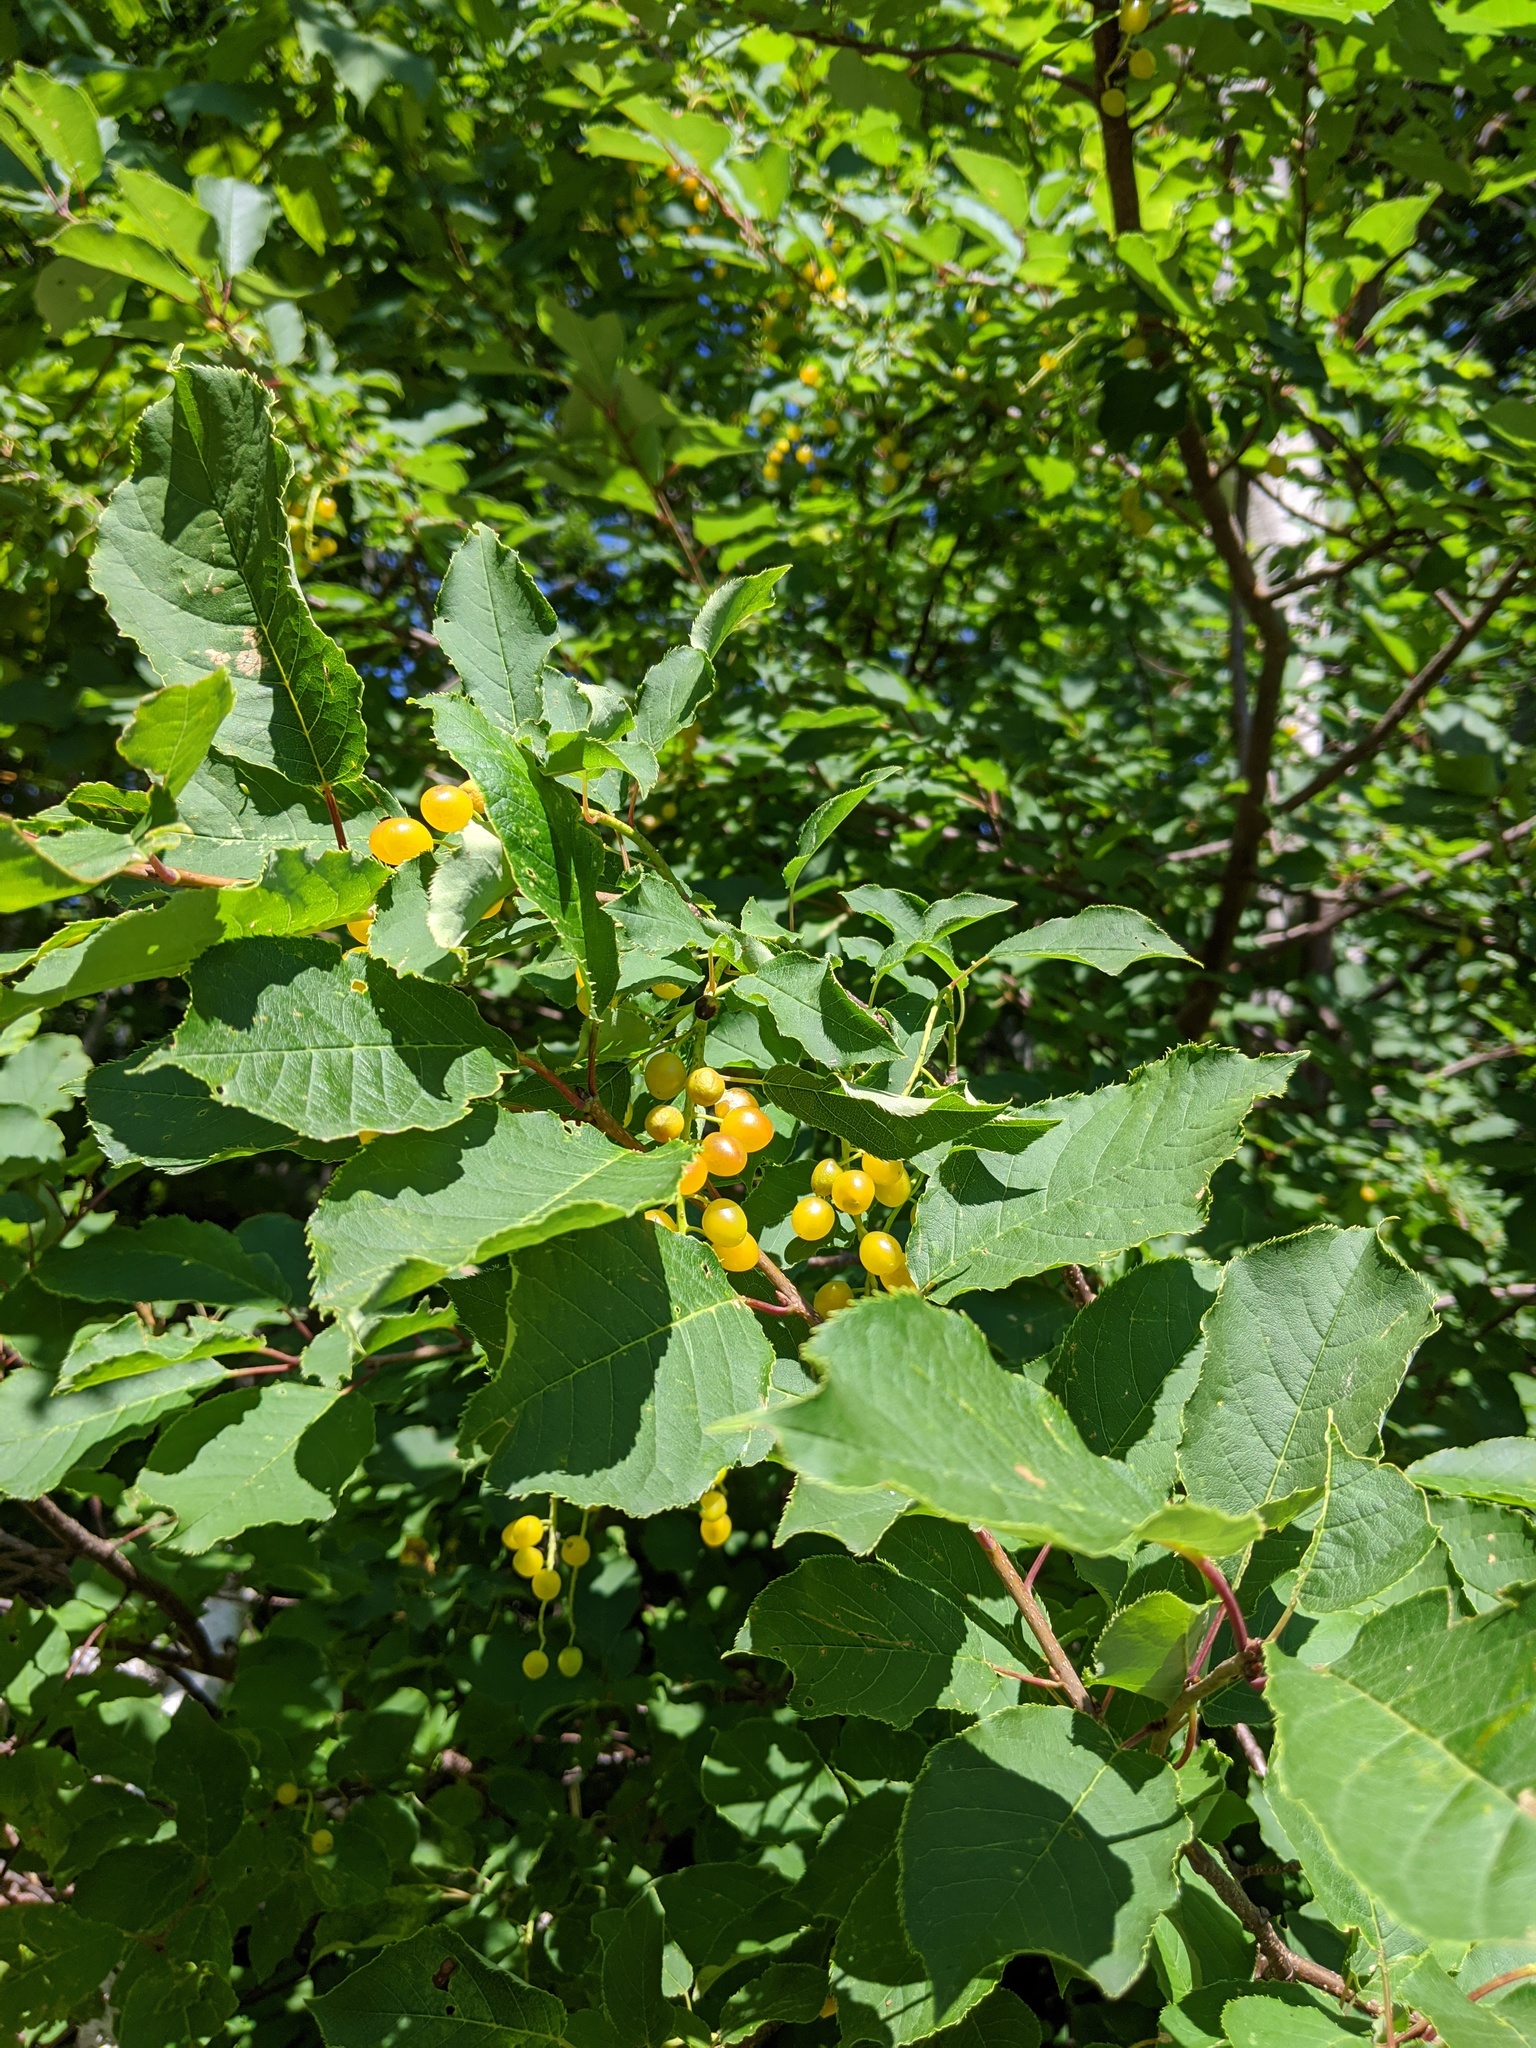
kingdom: Plantae
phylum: Tracheophyta
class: Magnoliopsida
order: Rosales
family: Rosaceae
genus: Prunus
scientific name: Prunus virginiana
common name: Chokecherry
